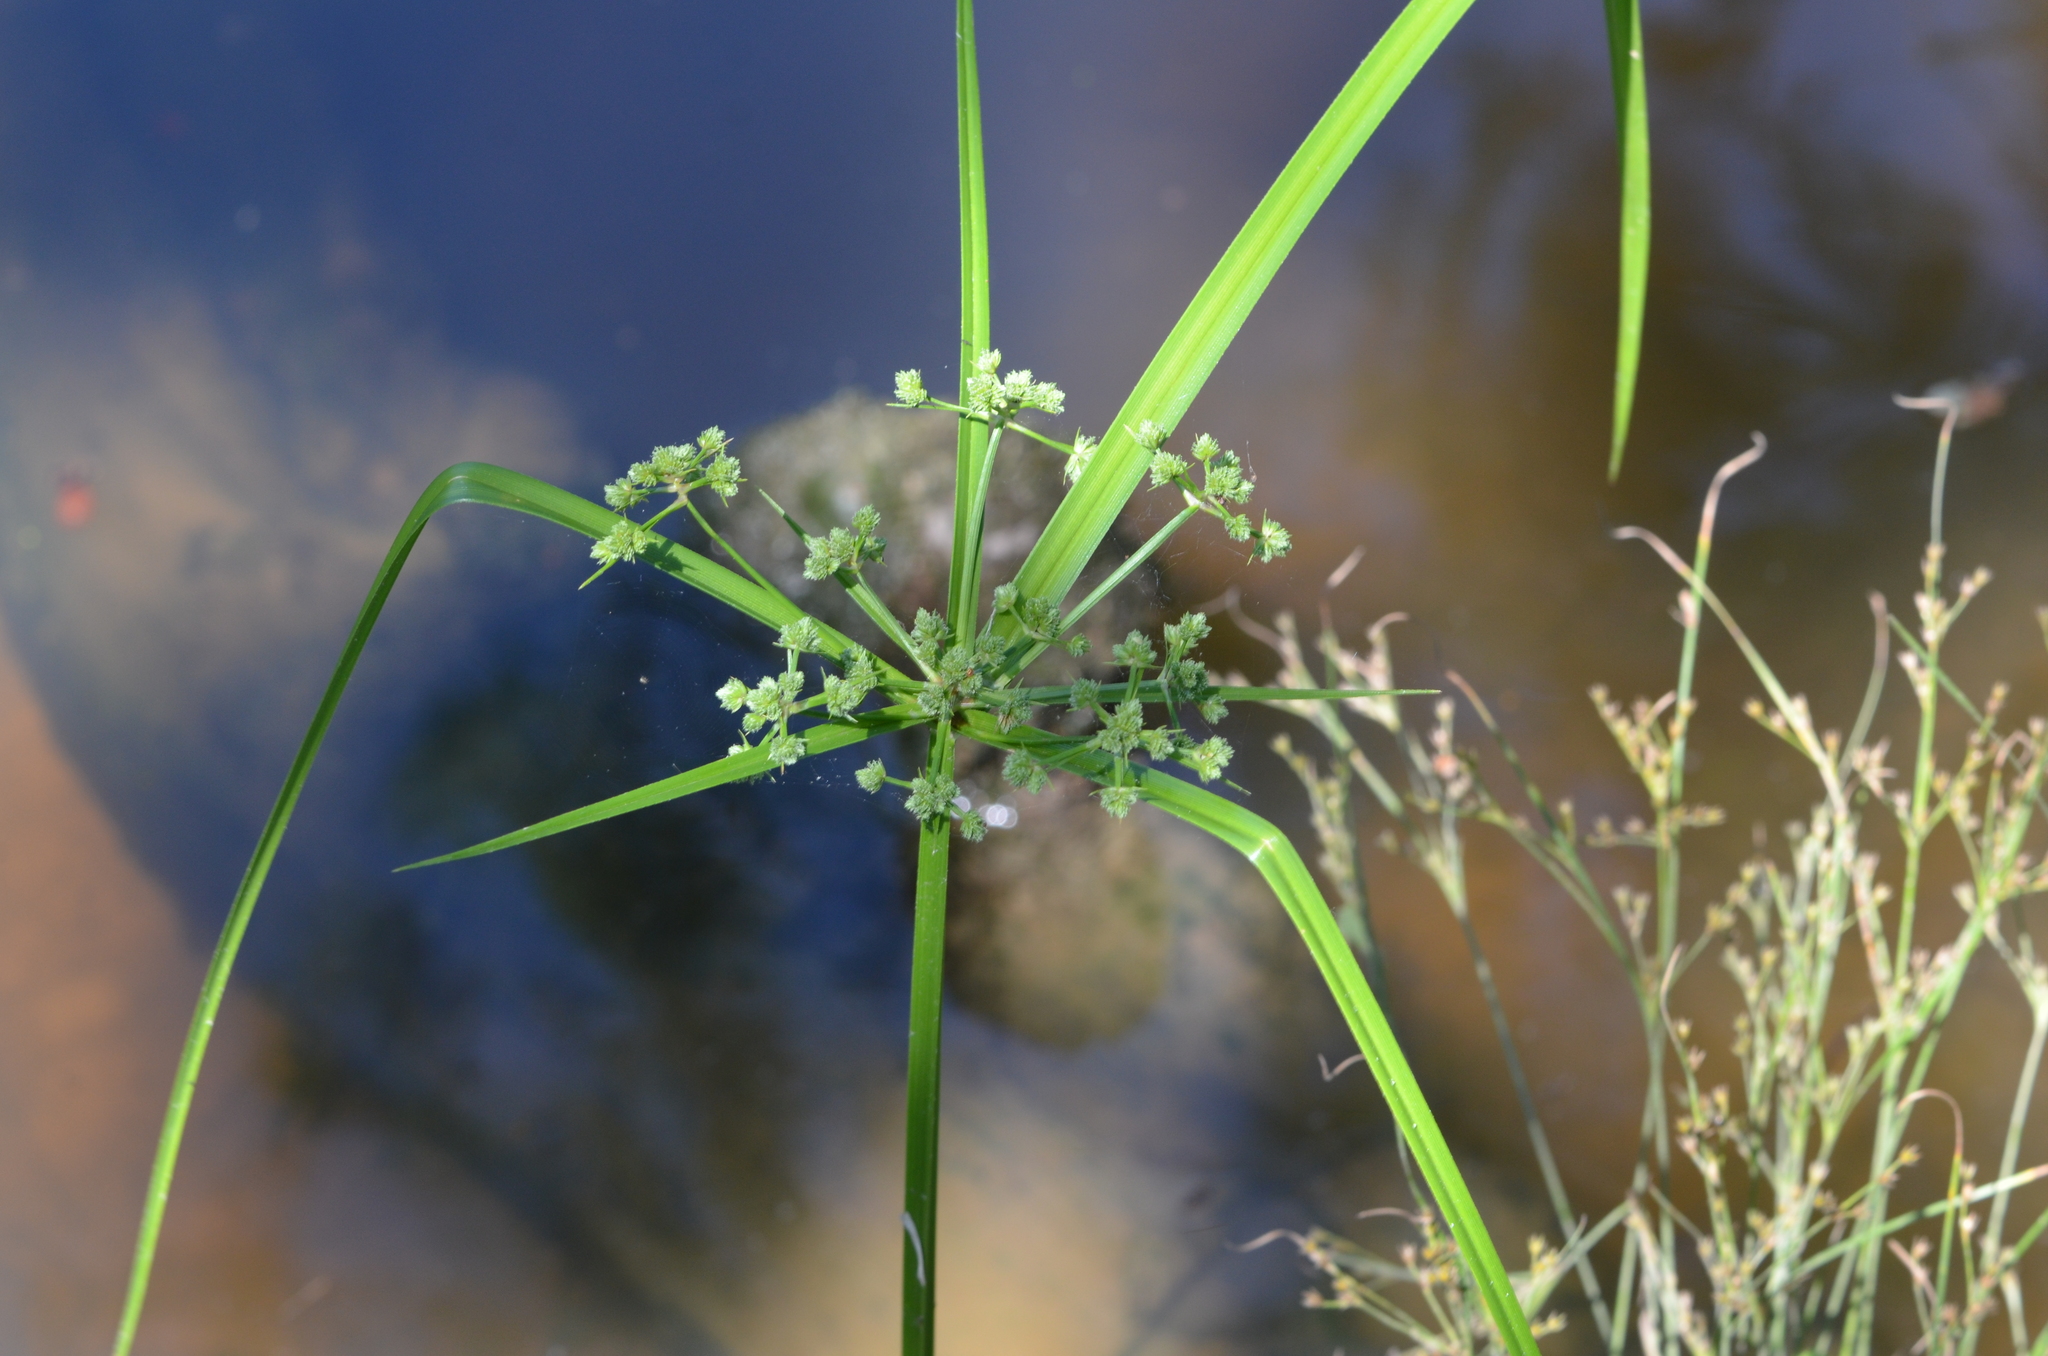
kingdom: Plantae
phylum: Tracheophyta
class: Liliopsida
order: Poales
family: Cyperaceae
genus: Cyperus
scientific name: Cyperus virens
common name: Green flatsedge
